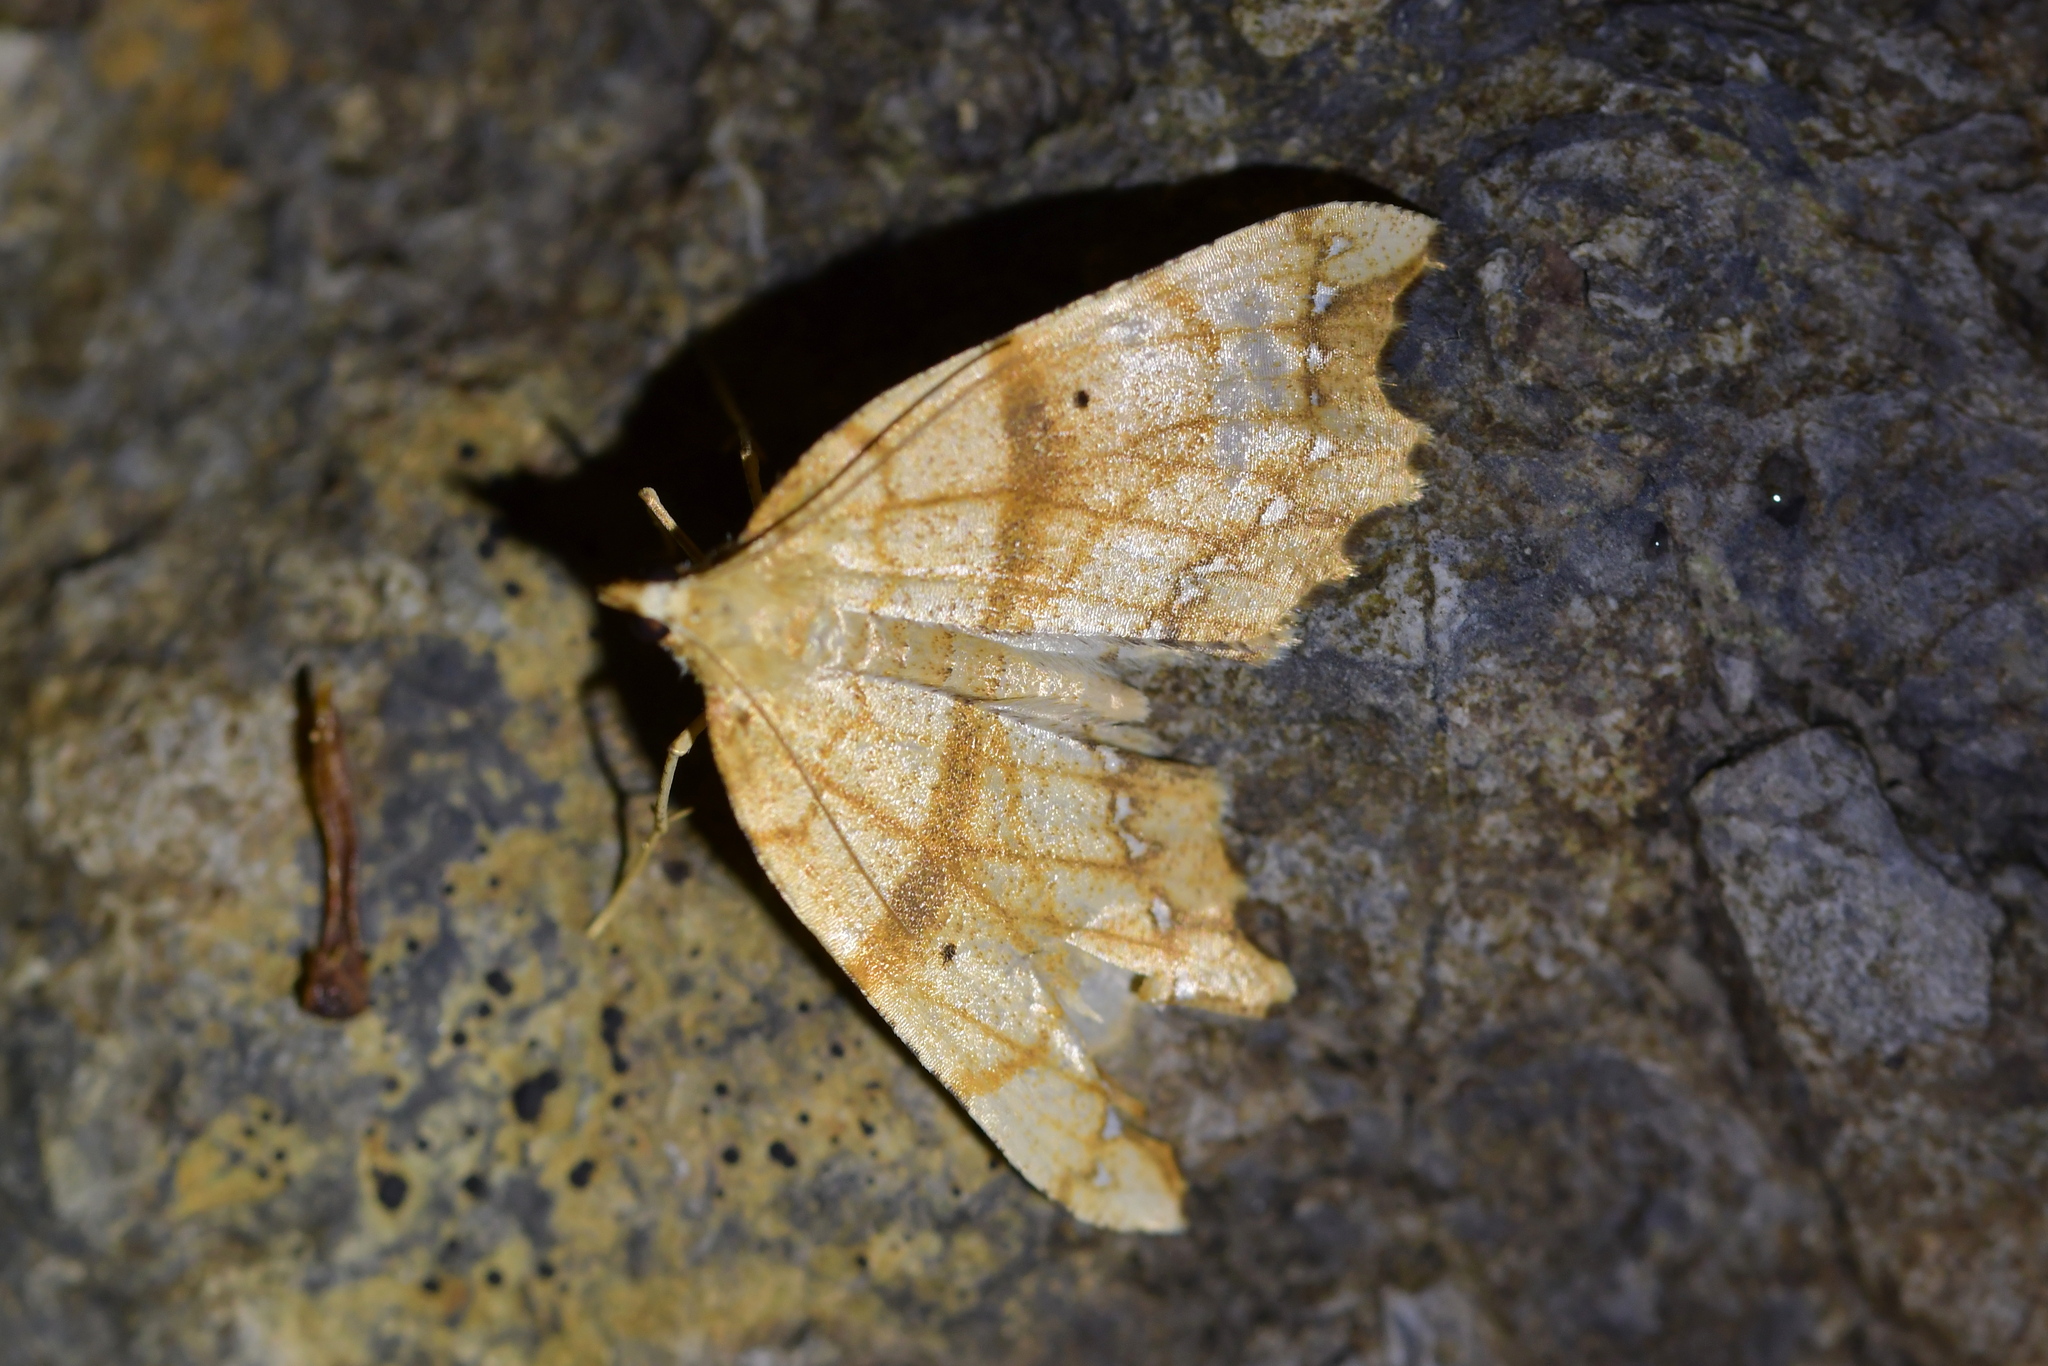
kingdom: Animalia
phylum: Arthropoda
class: Insecta
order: Lepidoptera
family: Geometridae
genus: Chalastra
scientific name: Chalastra pellurgata
